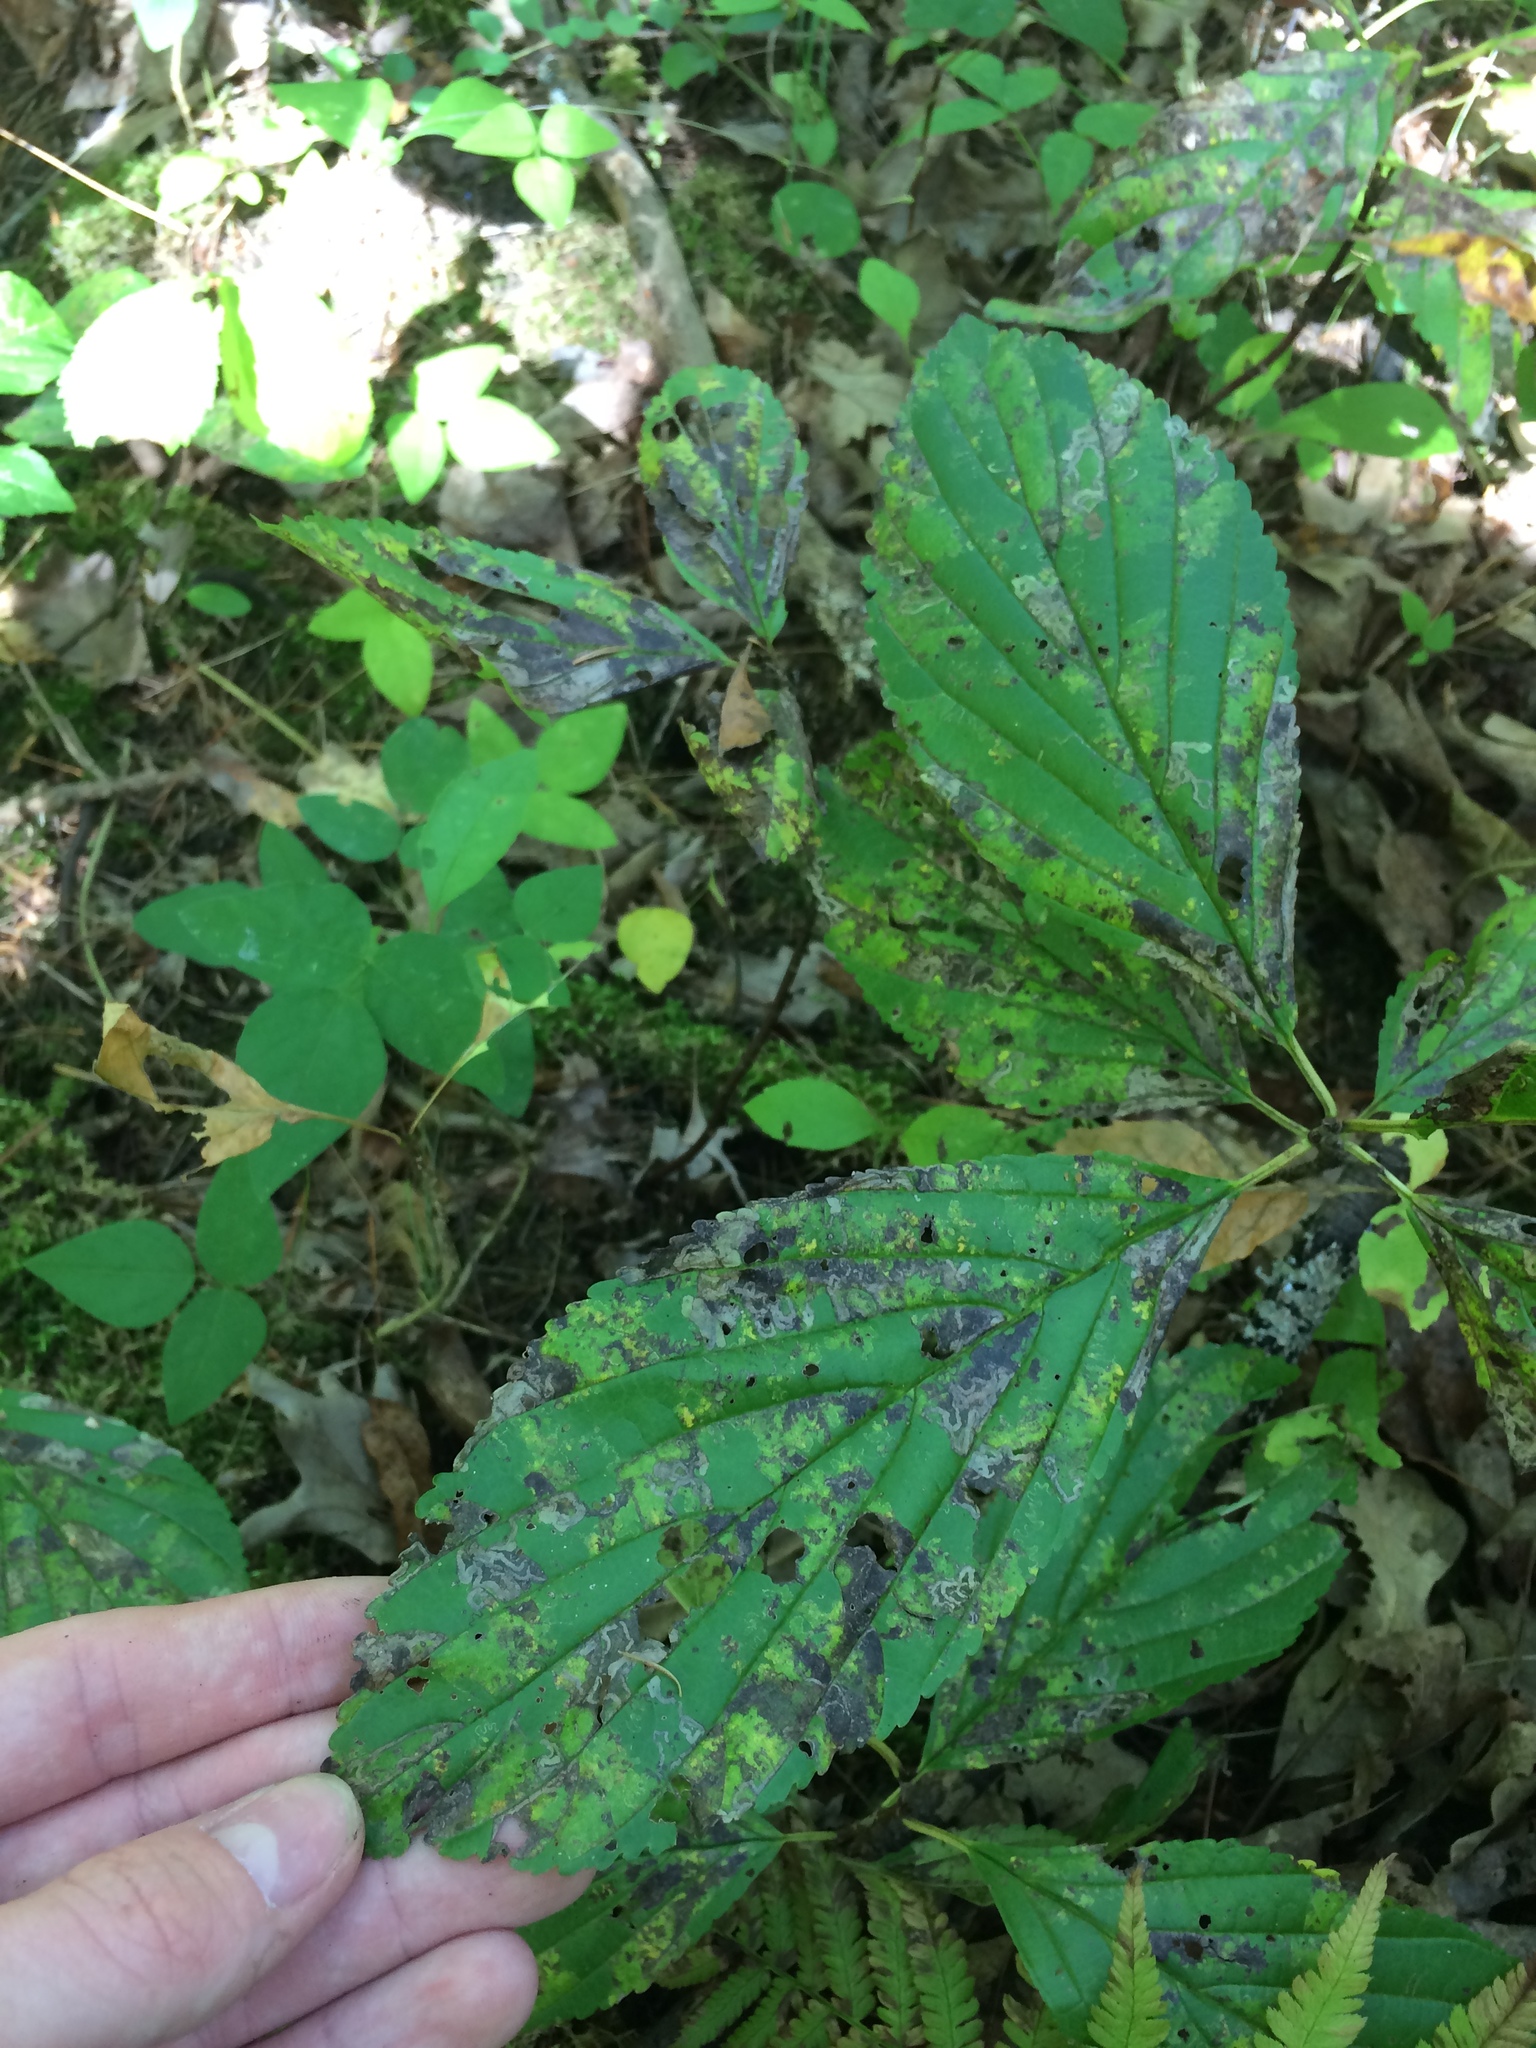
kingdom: Plantae
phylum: Tracheophyta
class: Magnoliopsida
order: Rosales
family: Rhamnaceae
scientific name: Rhamnaceae
